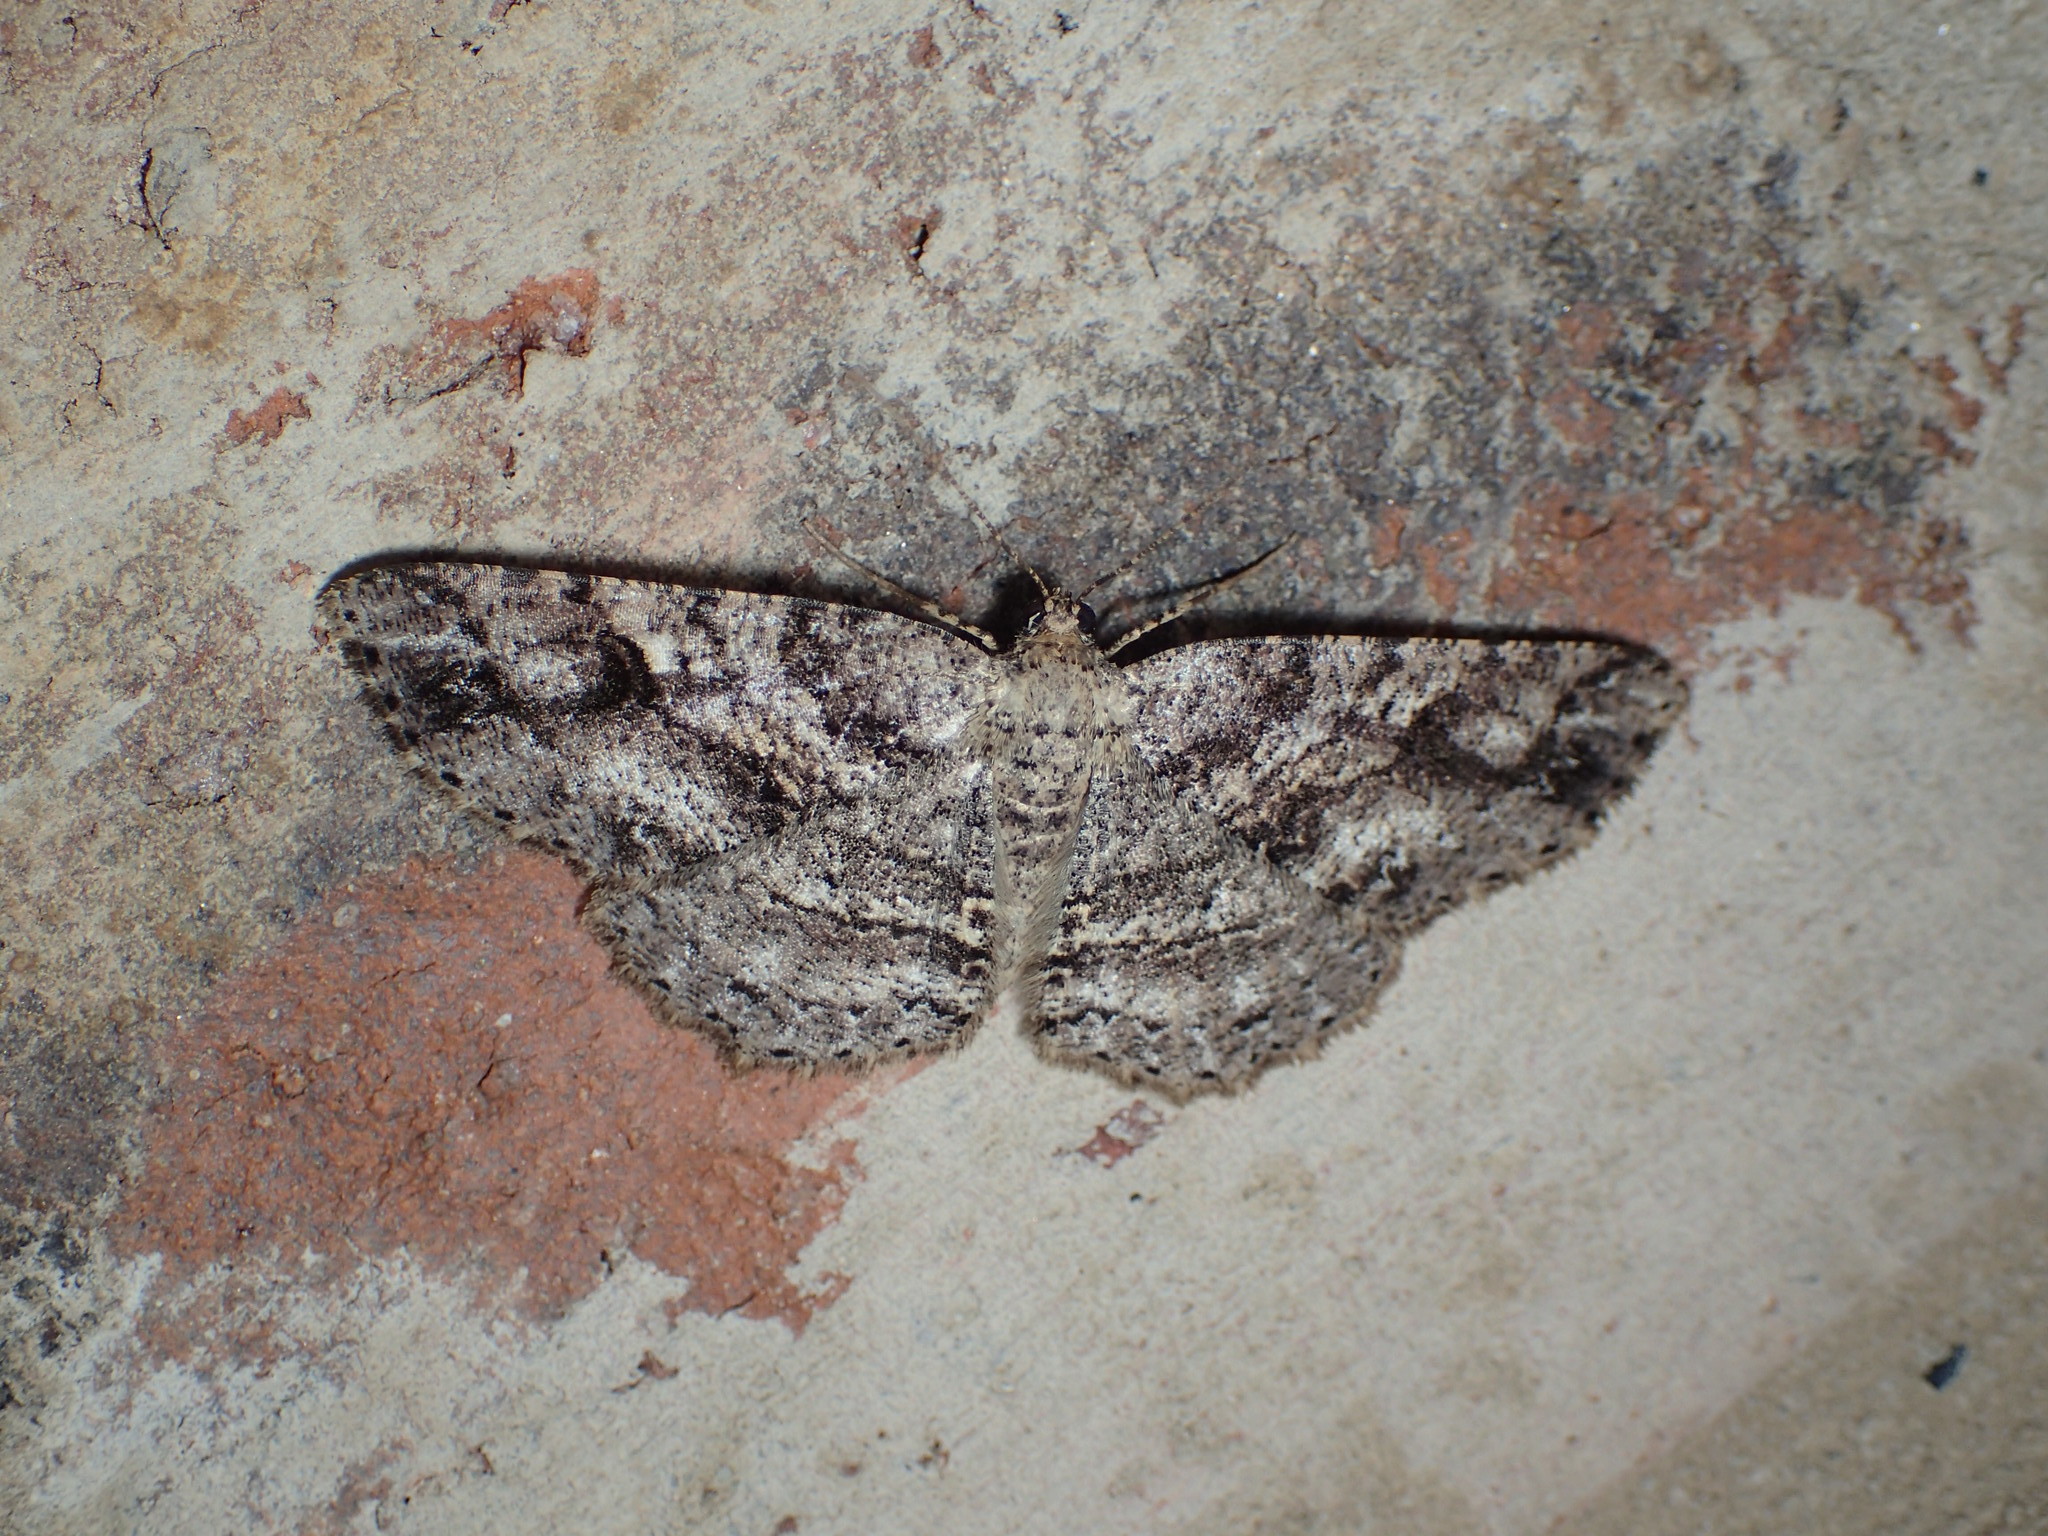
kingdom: Animalia
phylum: Arthropoda
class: Insecta
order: Lepidoptera
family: Geometridae
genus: Melanolophia
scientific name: Melanolophia canadaria
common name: Canadian melanolophia
